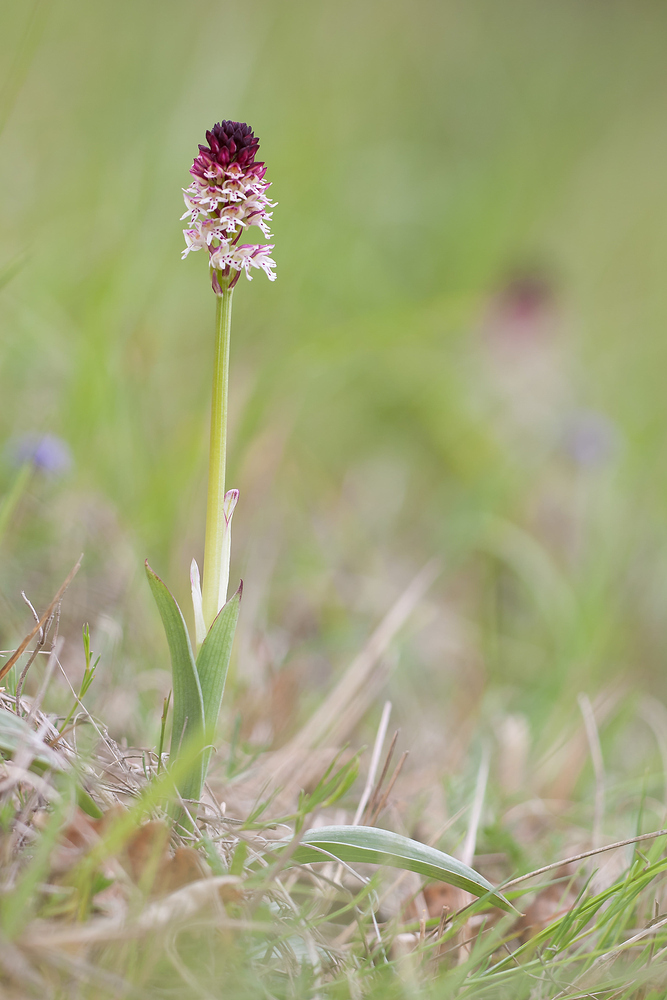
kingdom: Plantae
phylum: Tracheophyta
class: Liliopsida
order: Asparagales
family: Orchidaceae
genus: Neotinea
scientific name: Neotinea ustulata
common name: Burnt orchid
